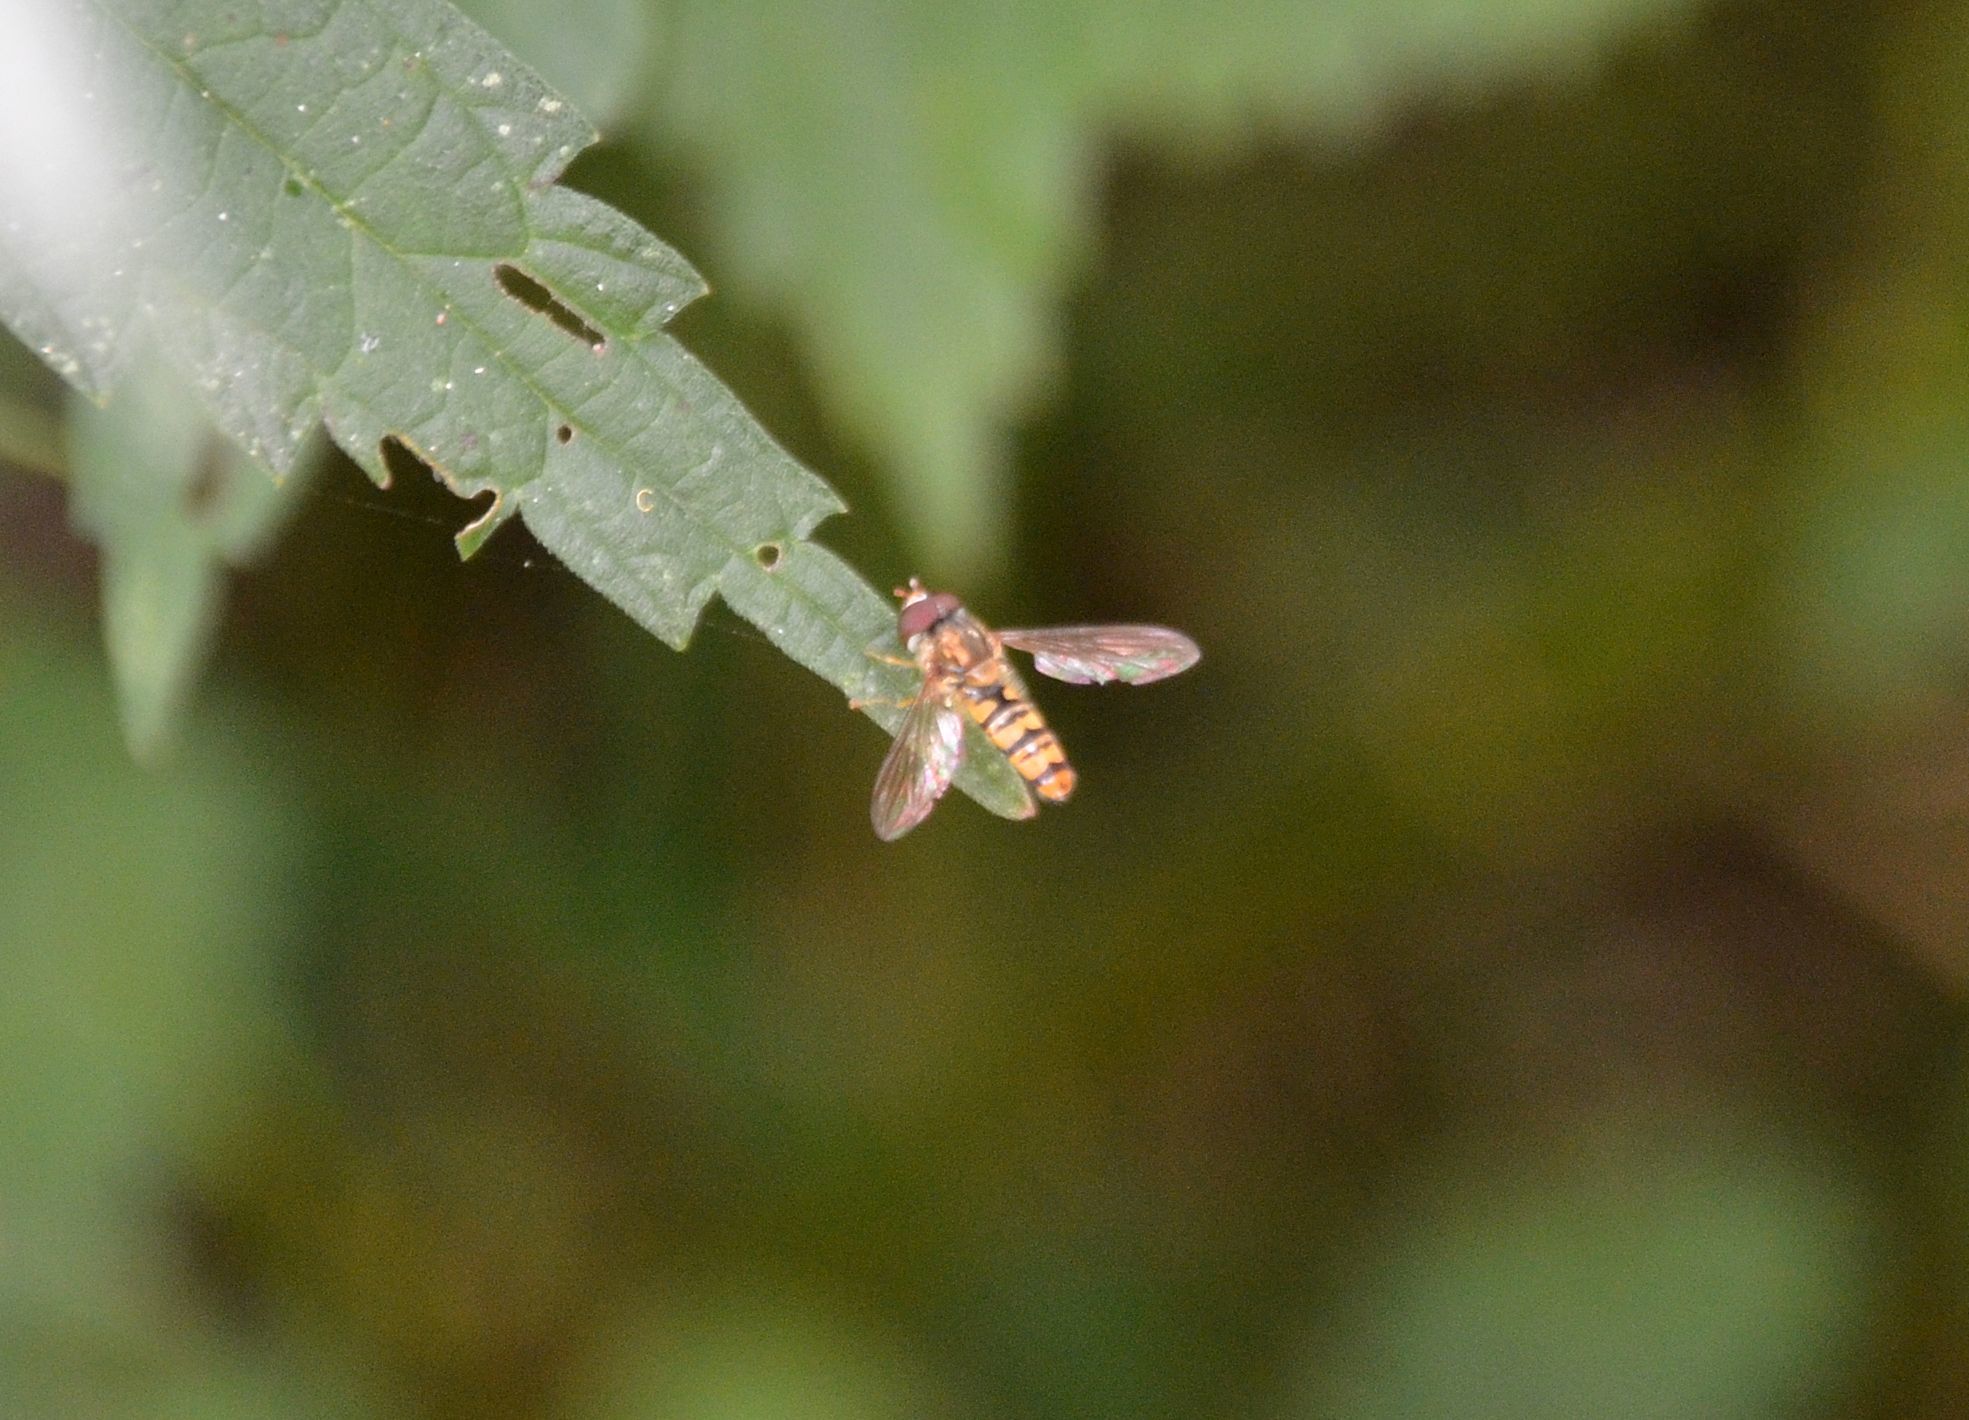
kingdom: Animalia
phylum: Arthropoda
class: Insecta
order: Diptera
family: Syrphidae
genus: Episyrphus
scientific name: Episyrphus balteatus
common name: Marmalade hoverfly
